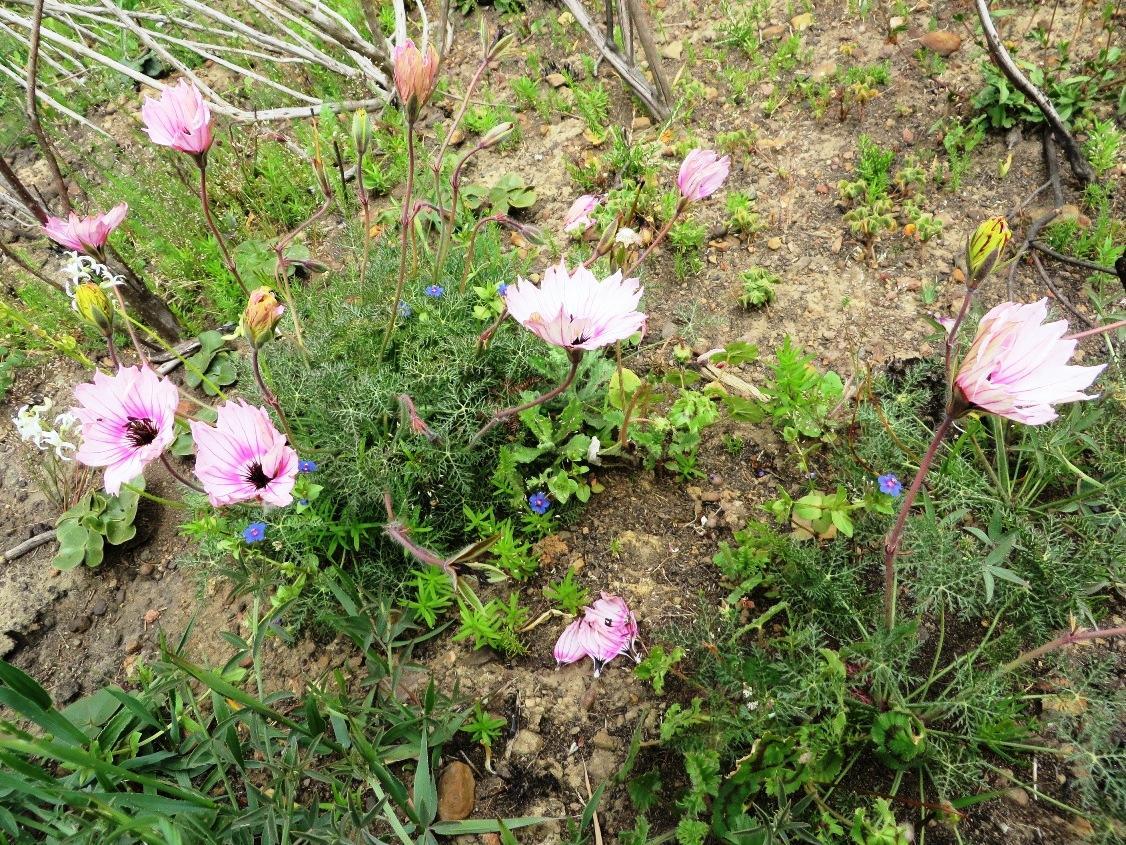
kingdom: Plantae
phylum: Tracheophyta
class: Magnoliopsida
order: Geraniales
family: Geraniaceae
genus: Monsonia
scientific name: Monsonia speciosa
